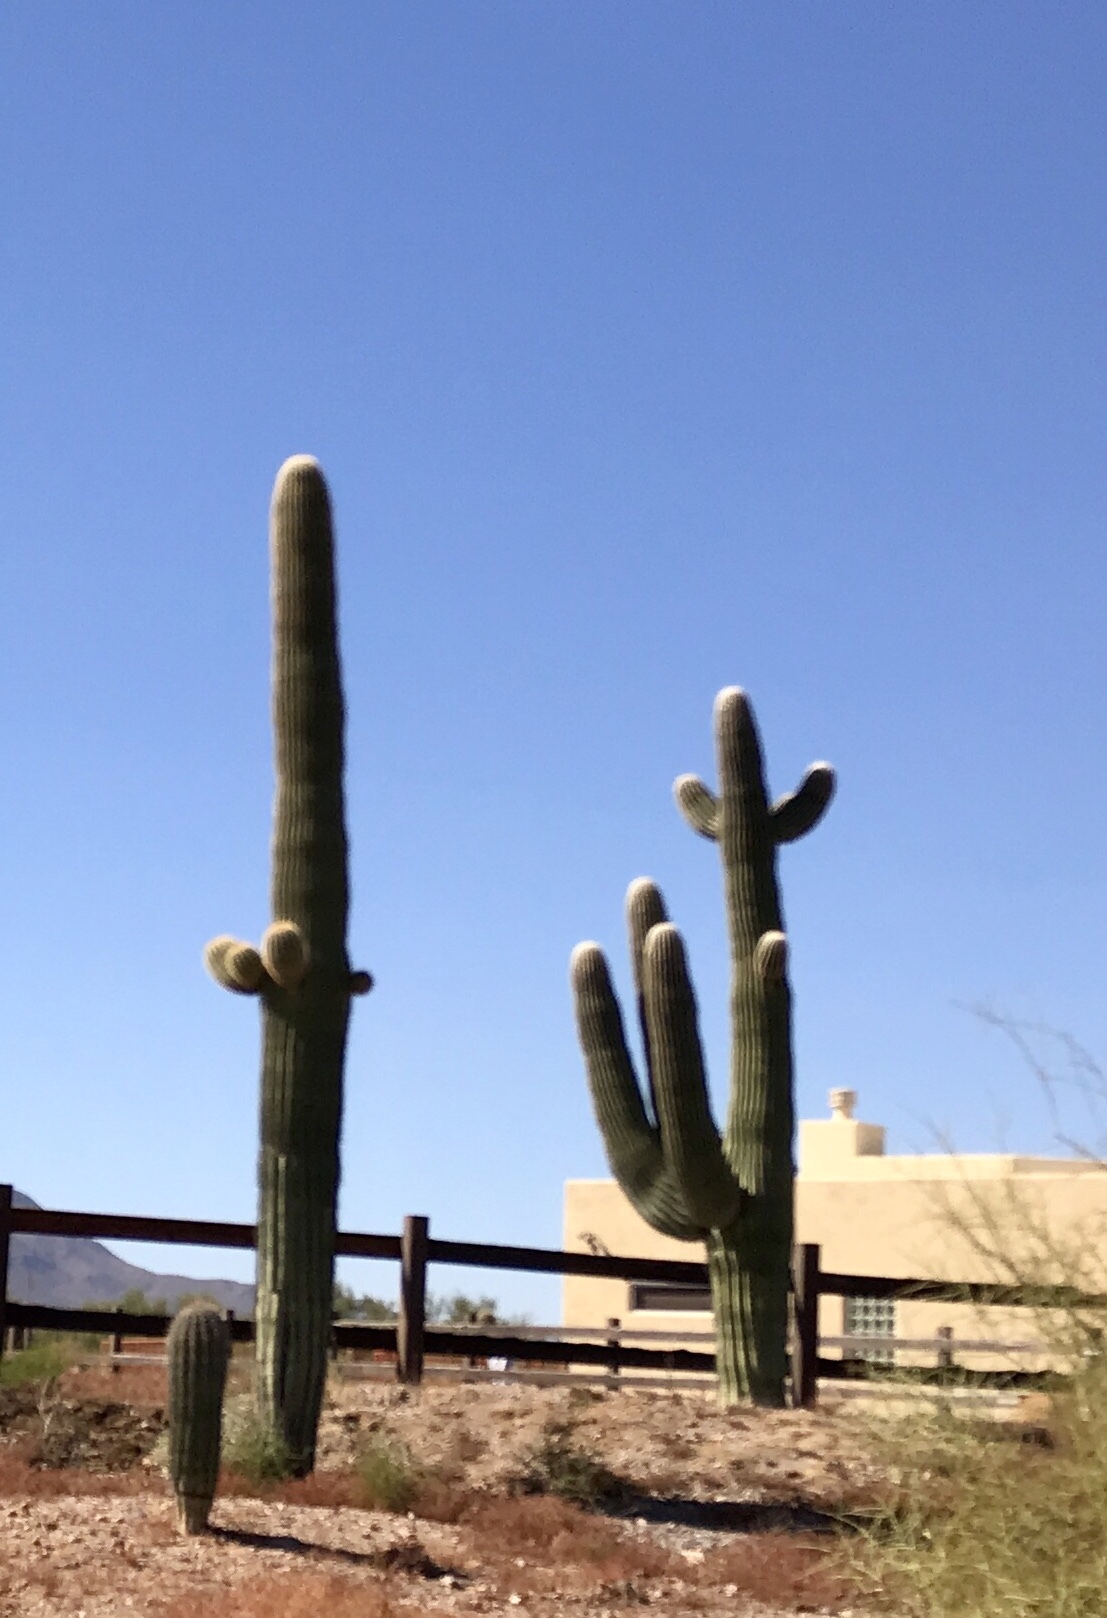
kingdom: Plantae
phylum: Tracheophyta
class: Magnoliopsida
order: Caryophyllales
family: Cactaceae
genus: Carnegiea
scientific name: Carnegiea gigantea
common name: Saguaro
